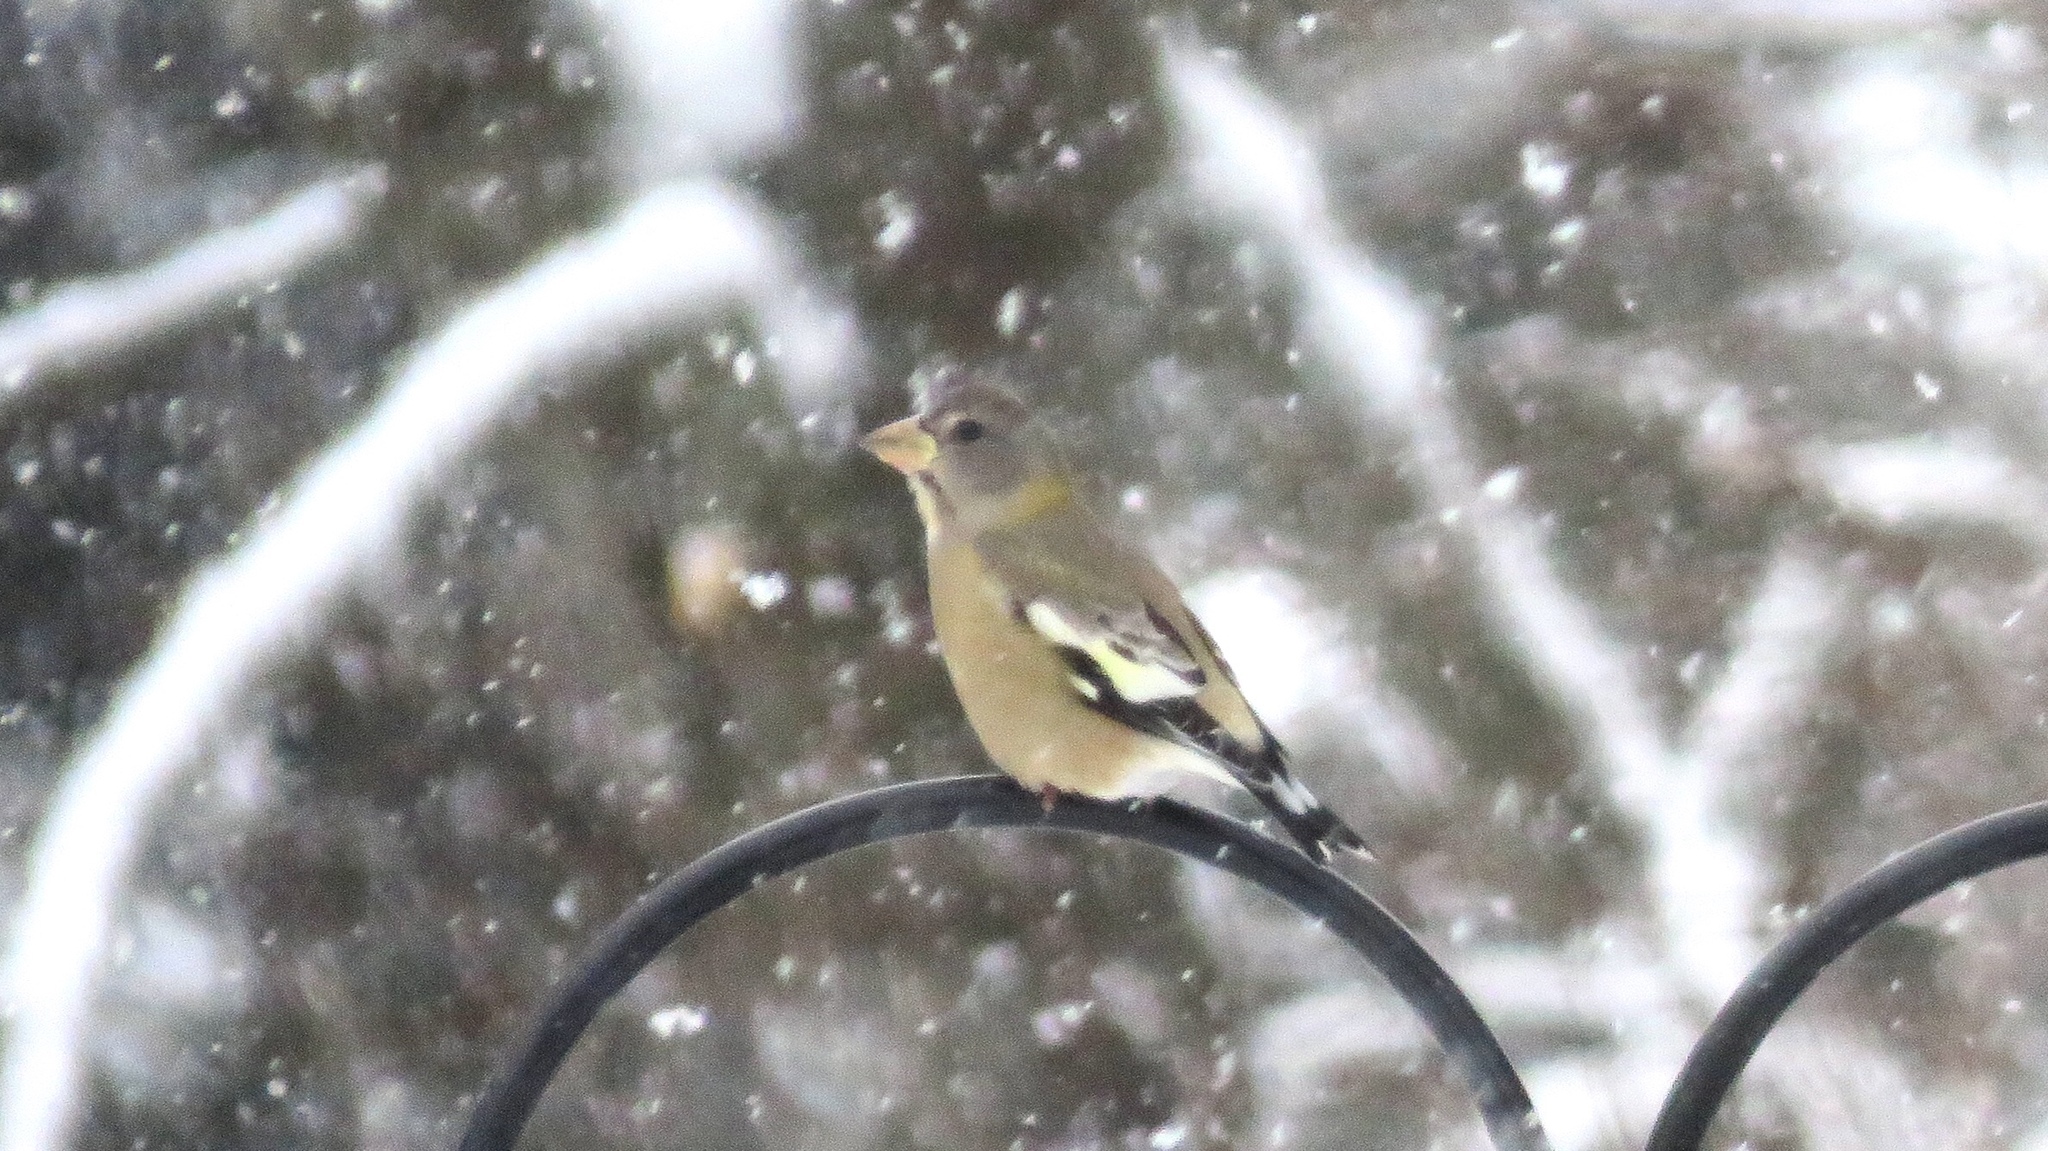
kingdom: Animalia
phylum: Chordata
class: Aves
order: Passeriformes
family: Fringillidae
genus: Hesperiphona
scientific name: Hesperiphona vespertina
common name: Evening grosbeak
